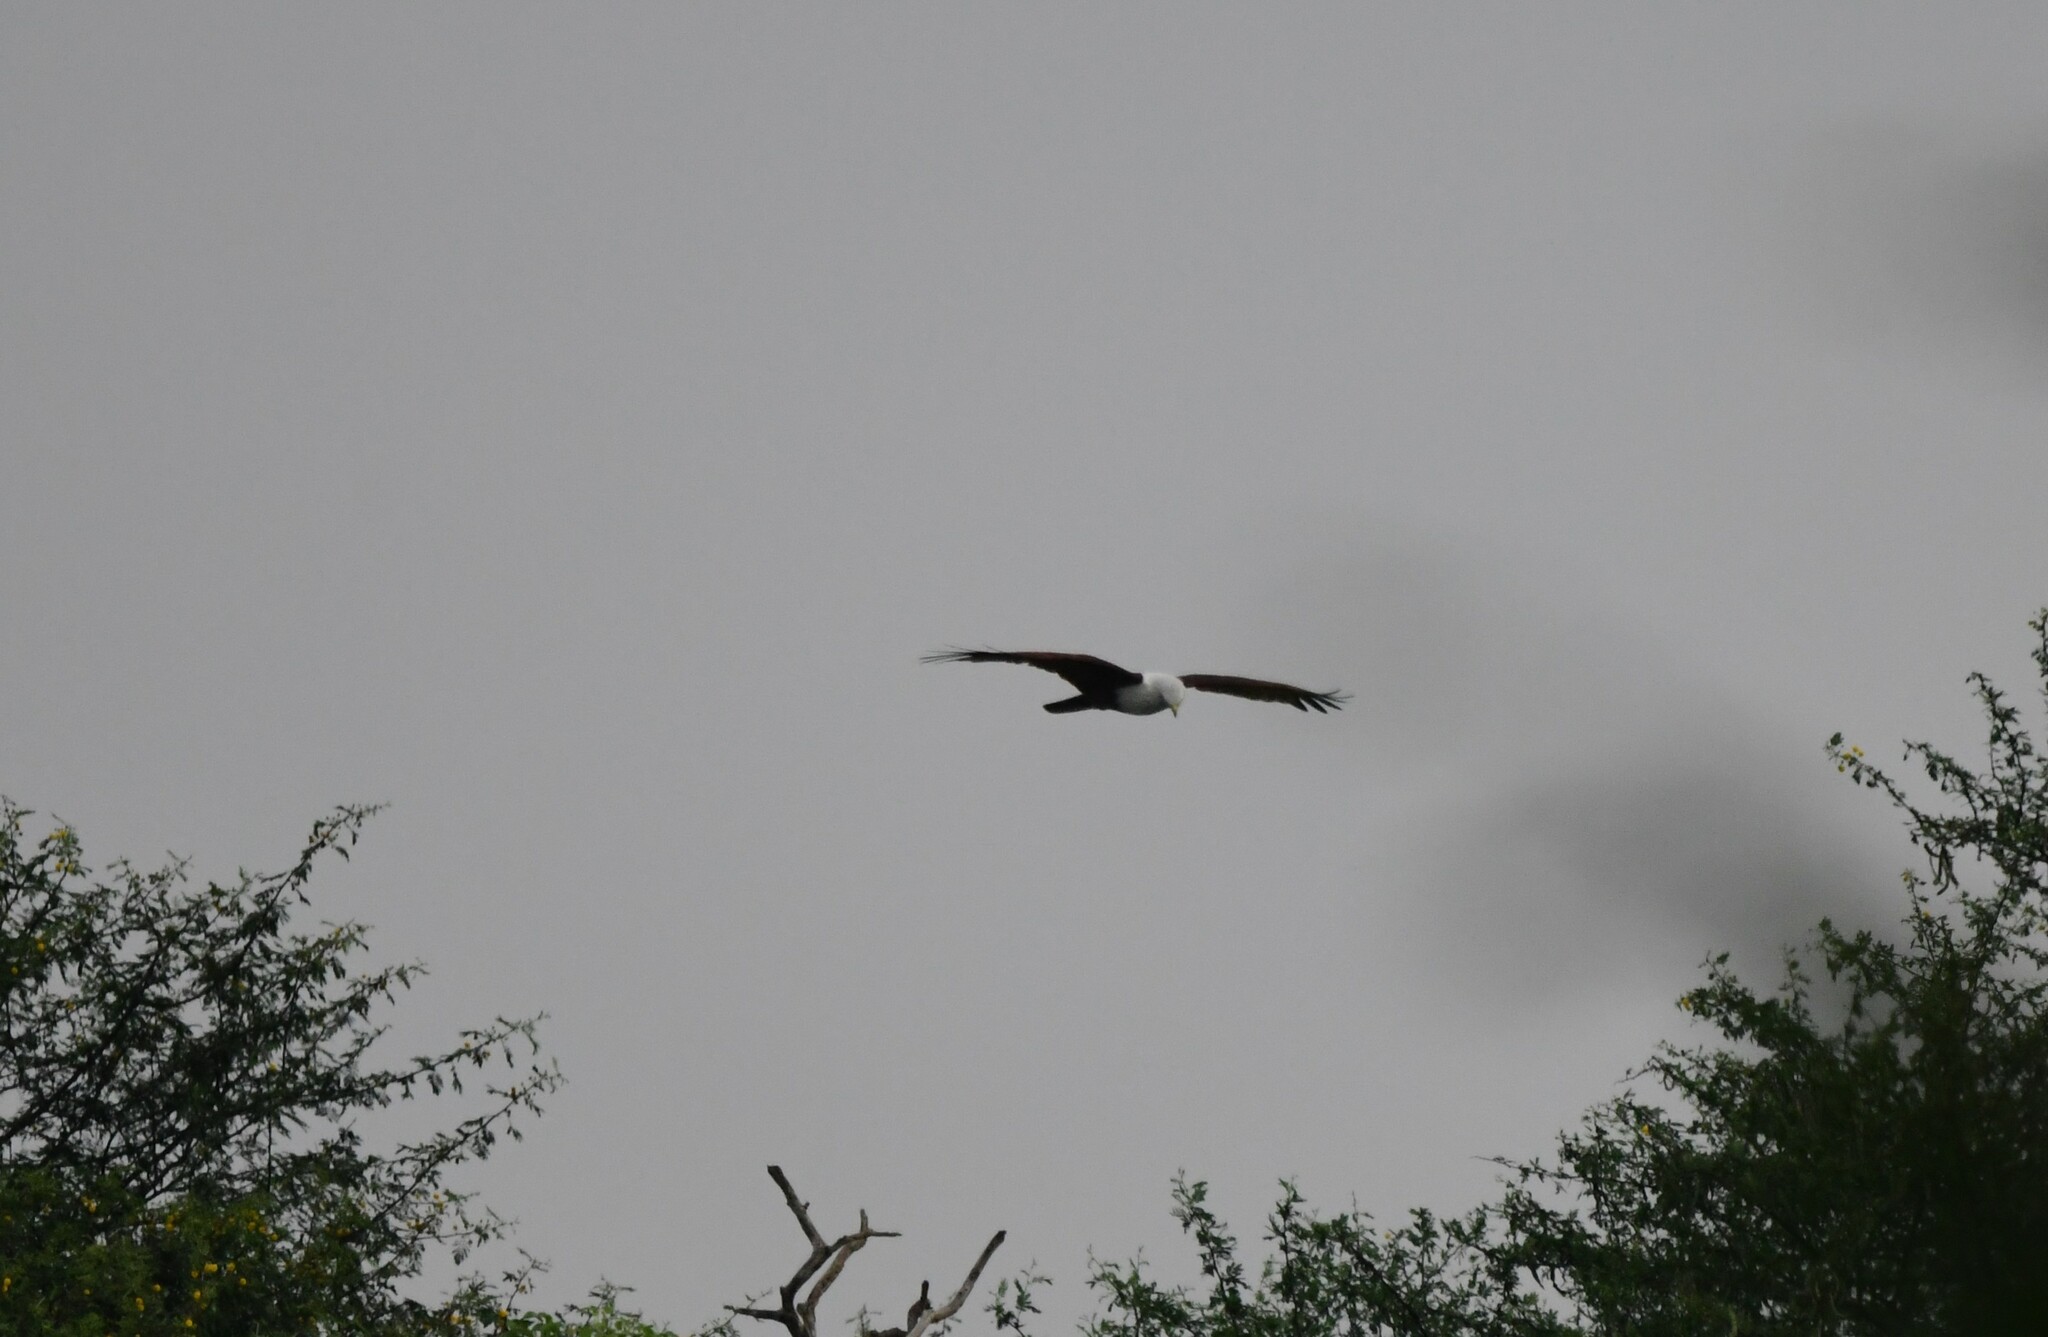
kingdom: Animalia
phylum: Chordata
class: Aves
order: Accipitriformes
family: Accipitridae
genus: Haliastur
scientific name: Haliastur indus
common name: Brahminy kite
